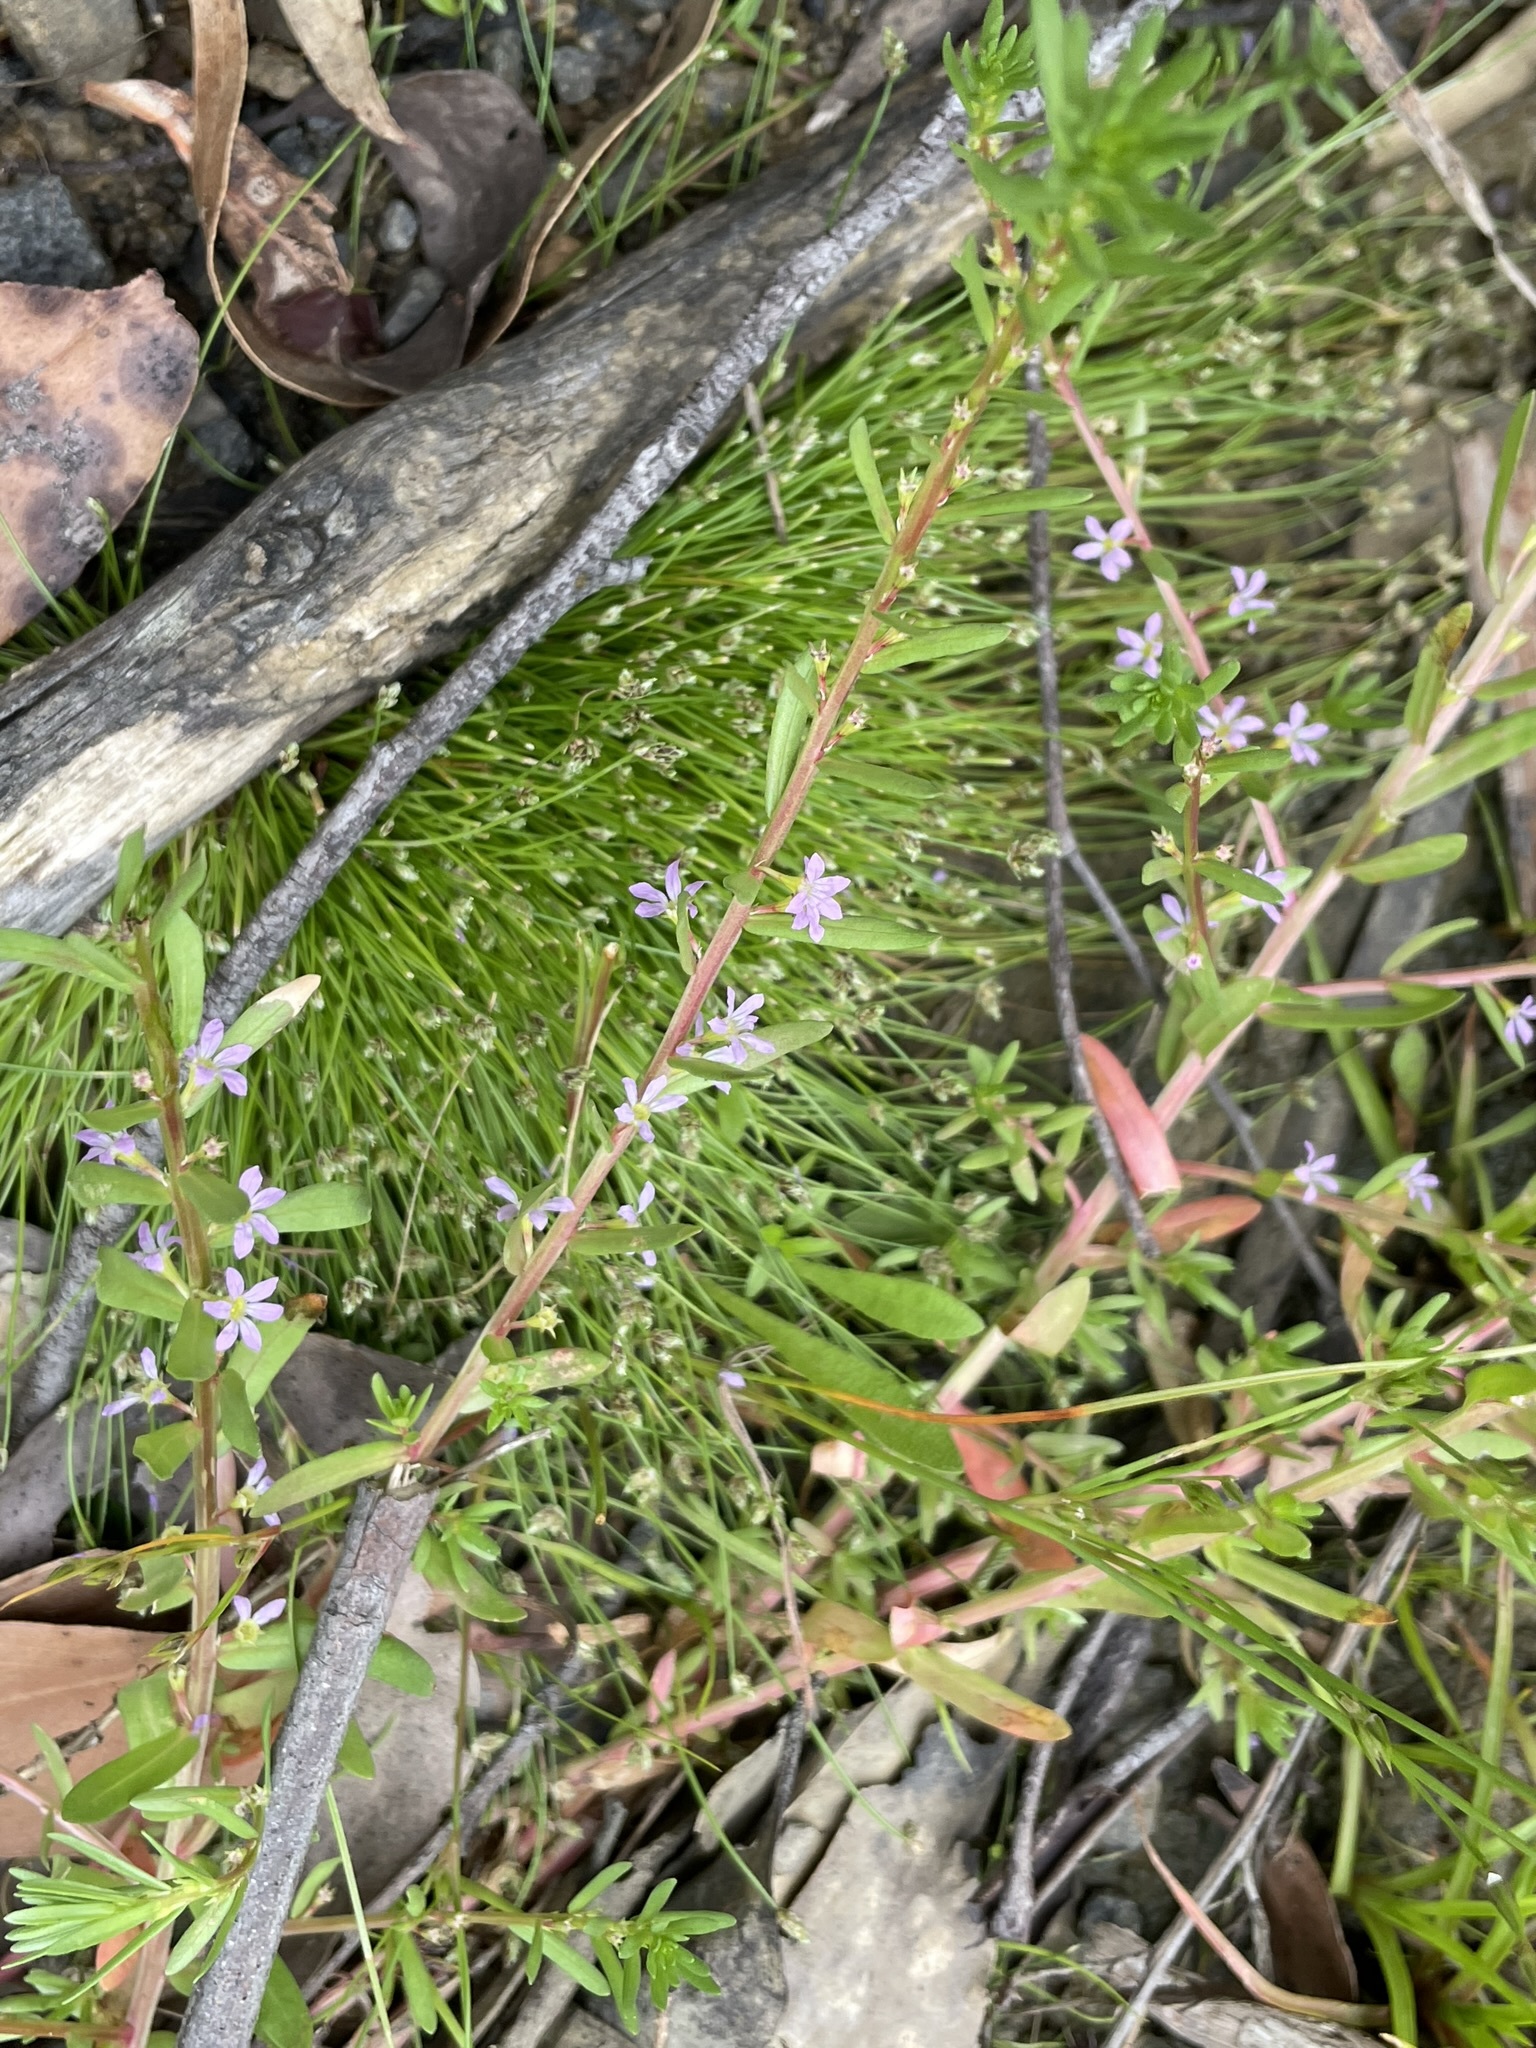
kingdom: Plantae
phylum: Tracheophyta
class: Magnoliopsida
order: Myrtales
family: Lythraceae
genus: Lythrum
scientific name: Lythrum hyssopifolia
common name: Grass-poly
